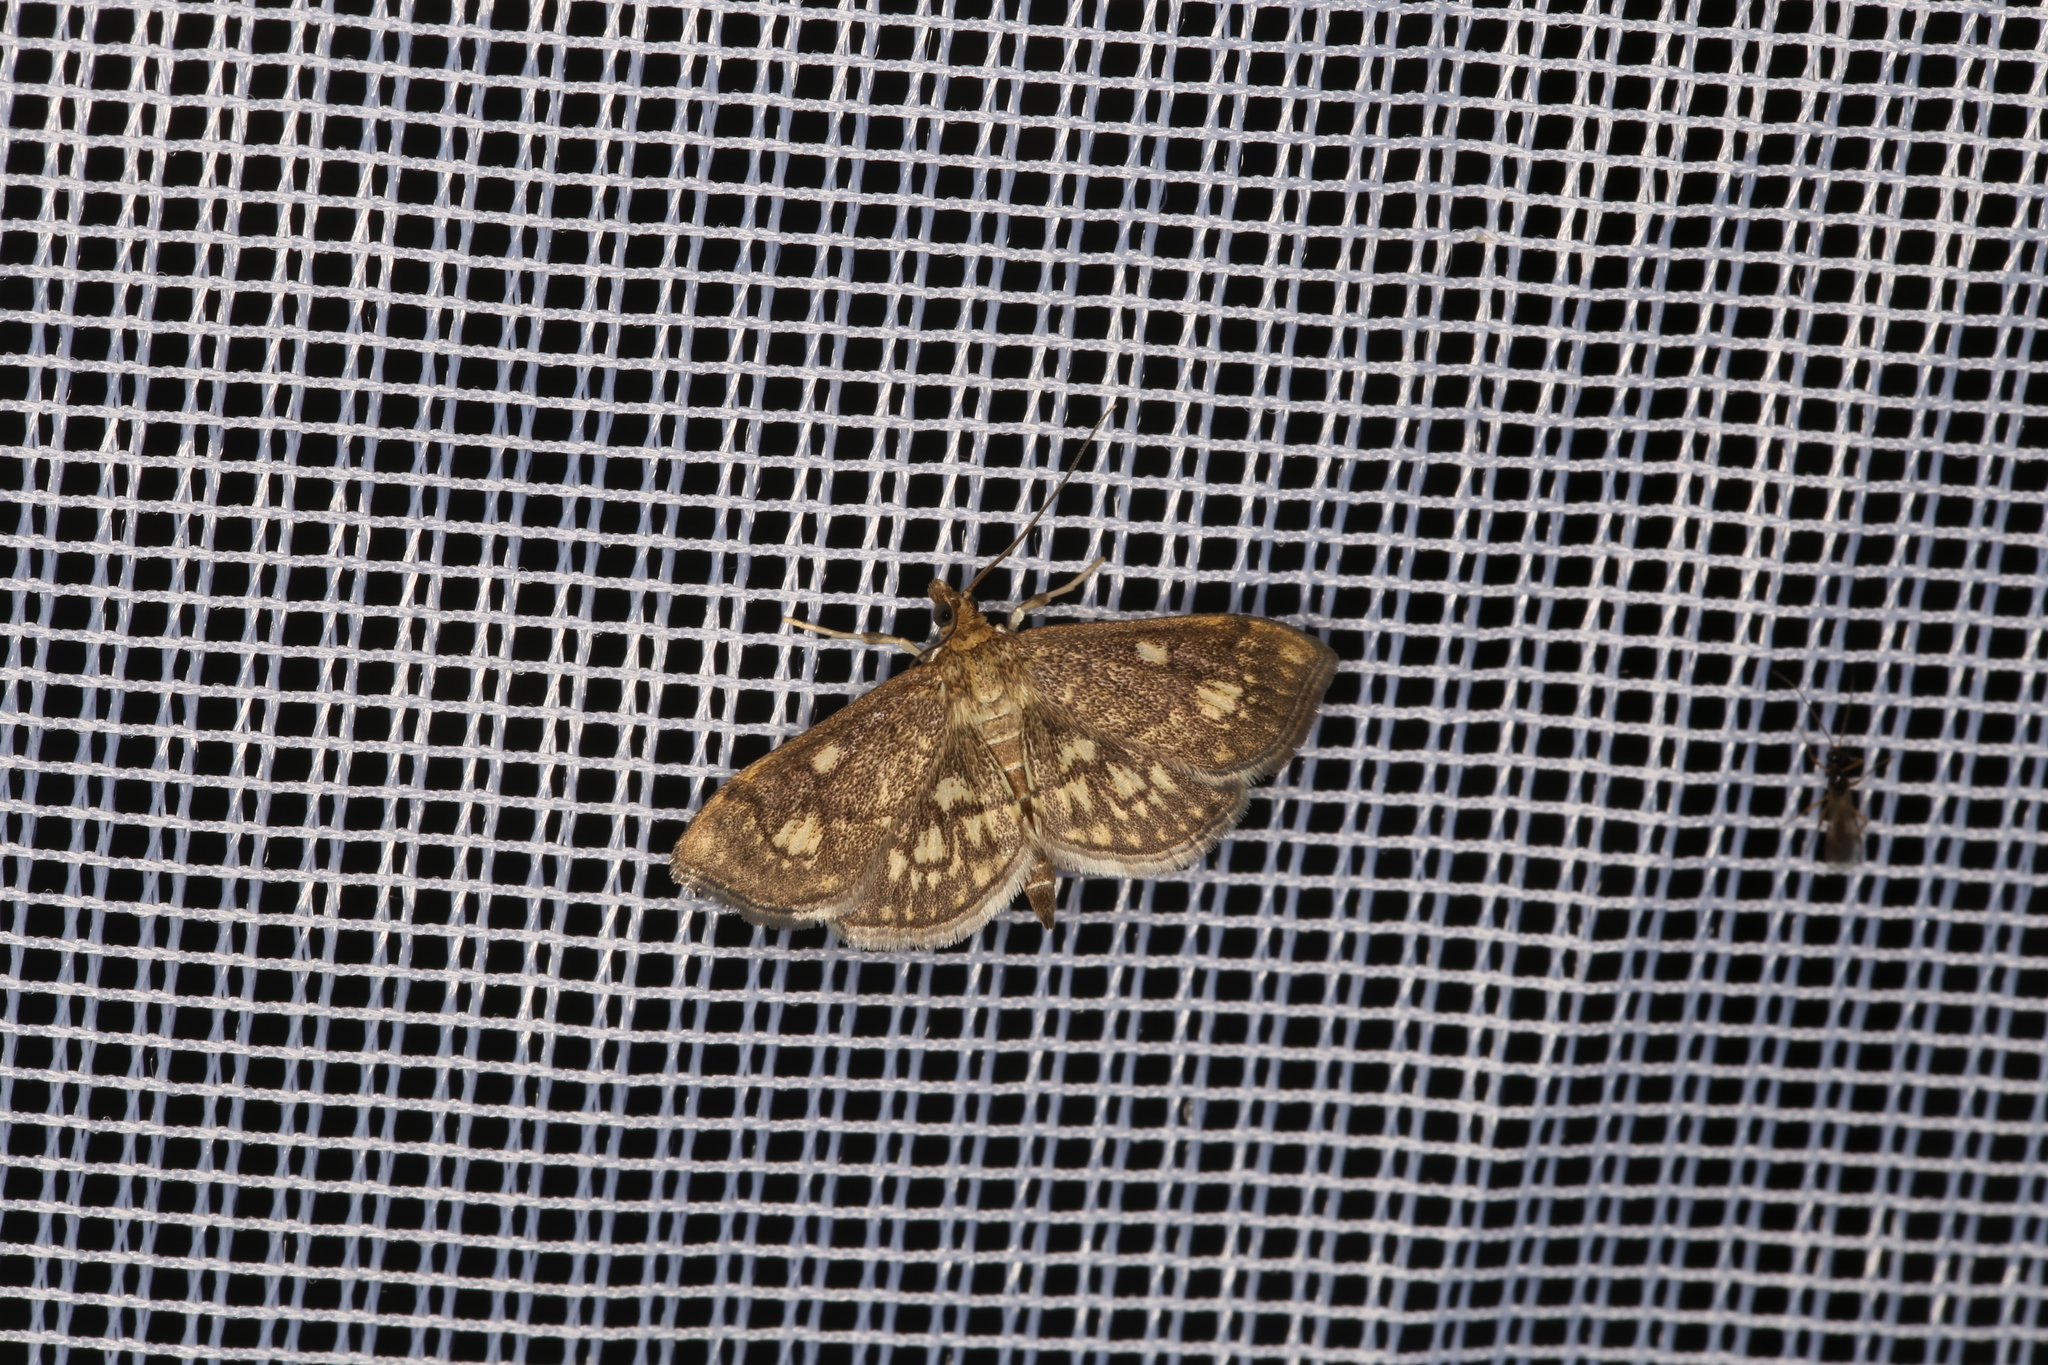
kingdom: Animalia
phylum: Arthropoda
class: Insecta
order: Lepidoptera
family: Crambidae
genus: Anania
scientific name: Anania stachydalis
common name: Woundwort pearl
